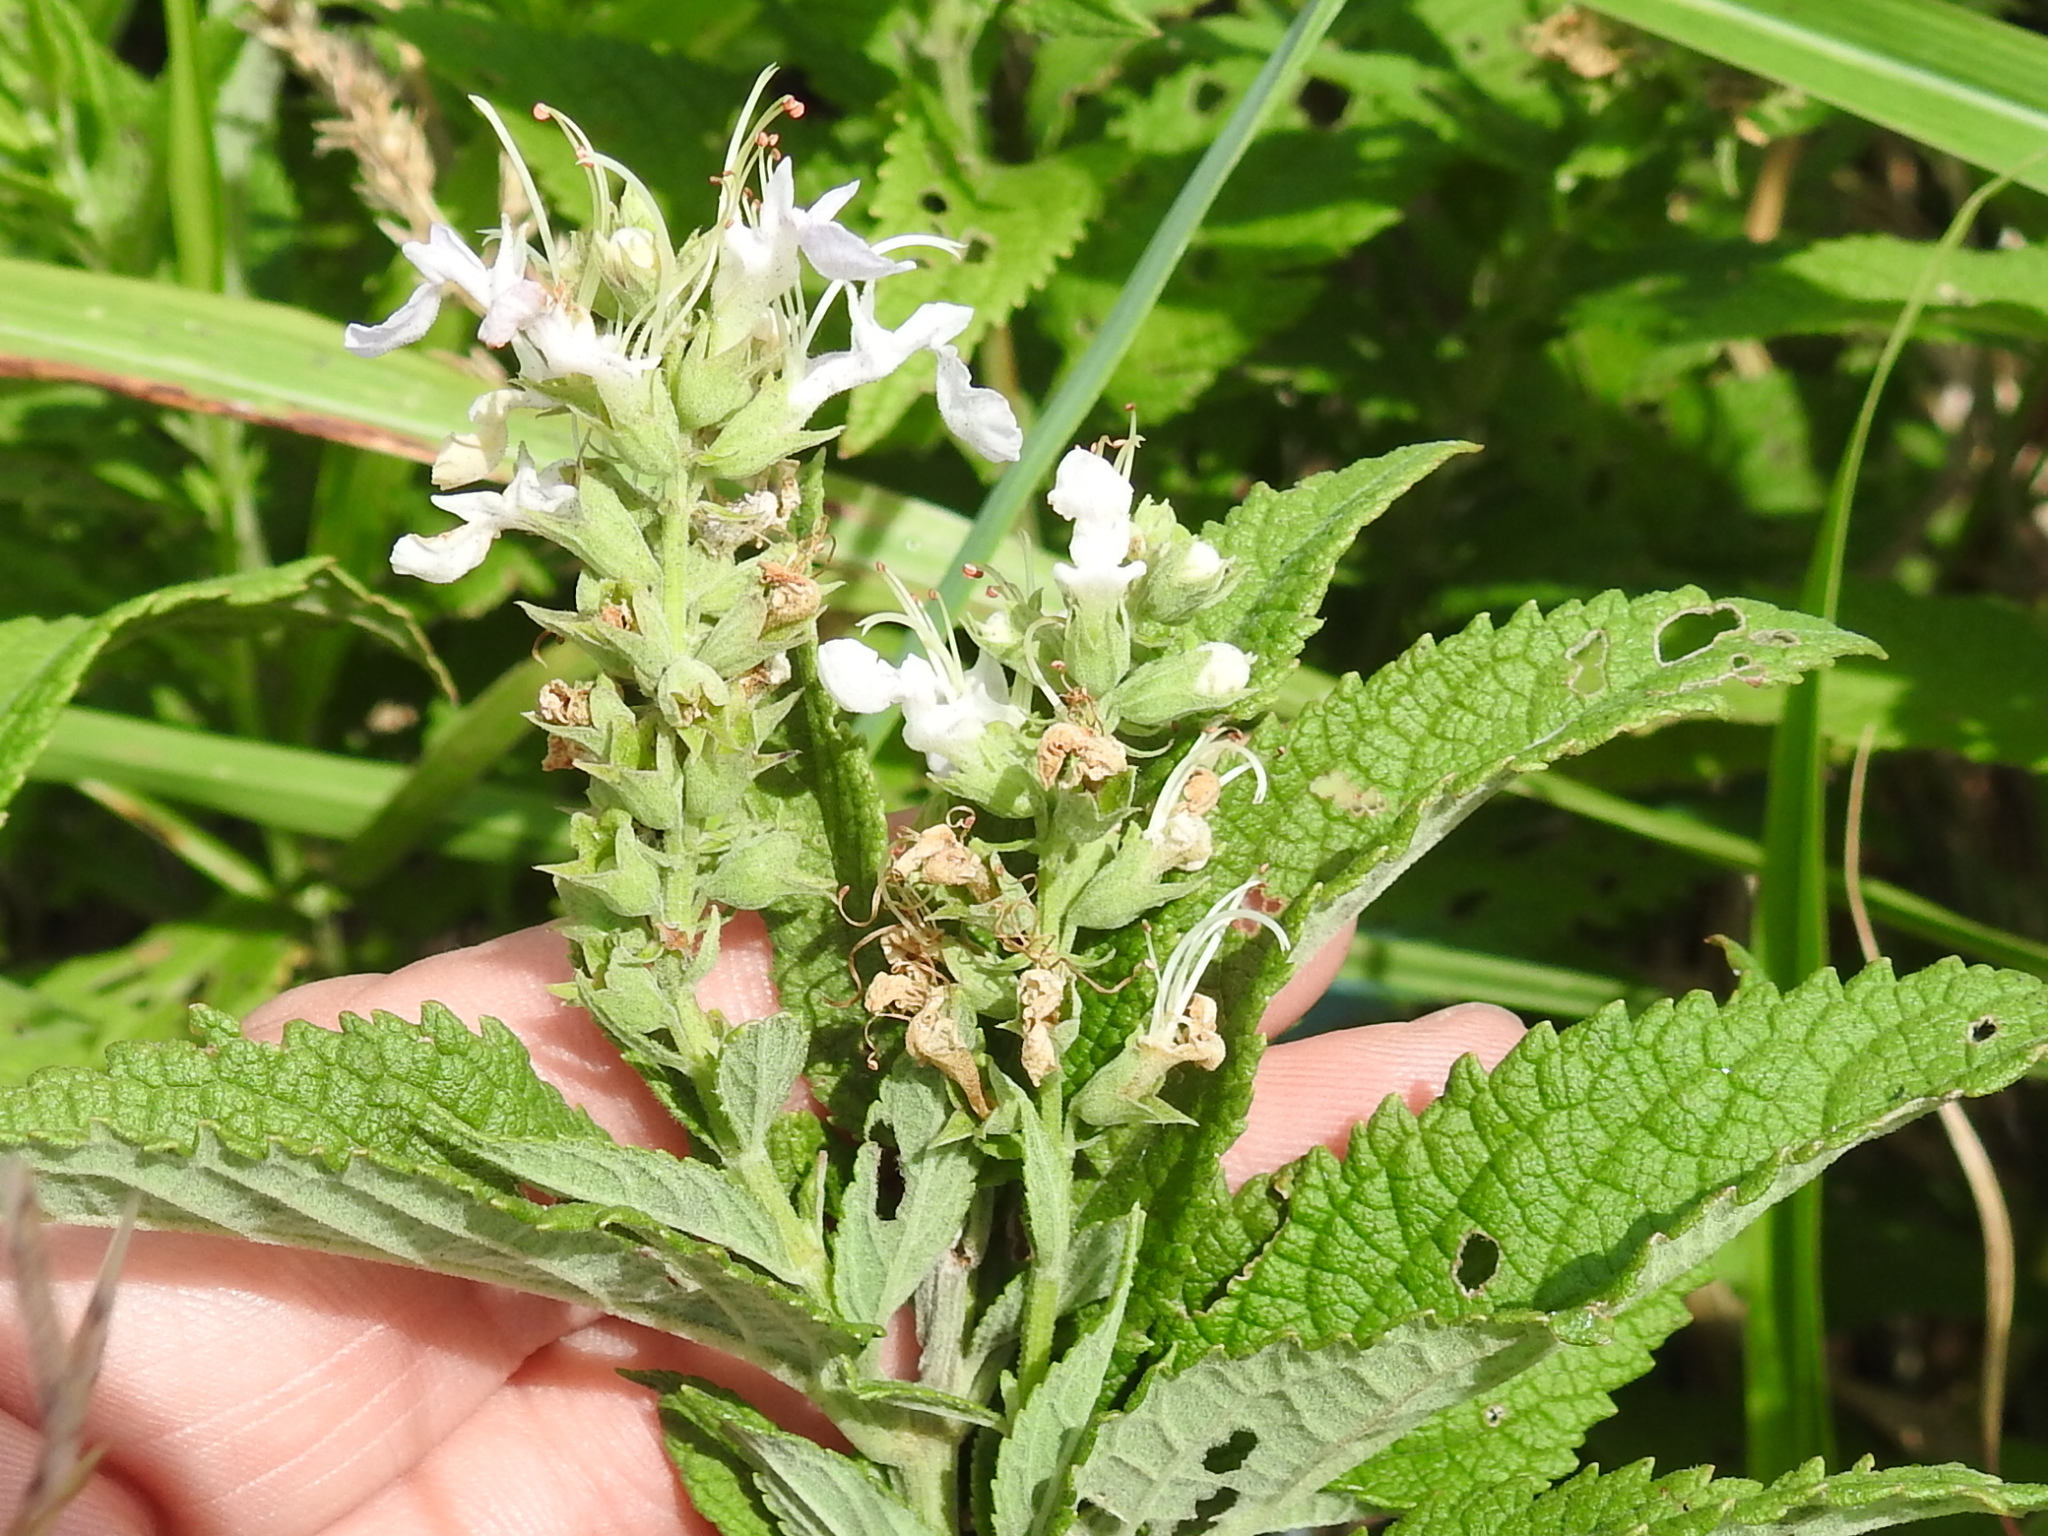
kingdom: Plantae
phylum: Tracheophyta
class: Magnoliopsida
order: Lamiales
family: Lamiaceae
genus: Teucrium
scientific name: Teucrium canadense
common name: American germander
